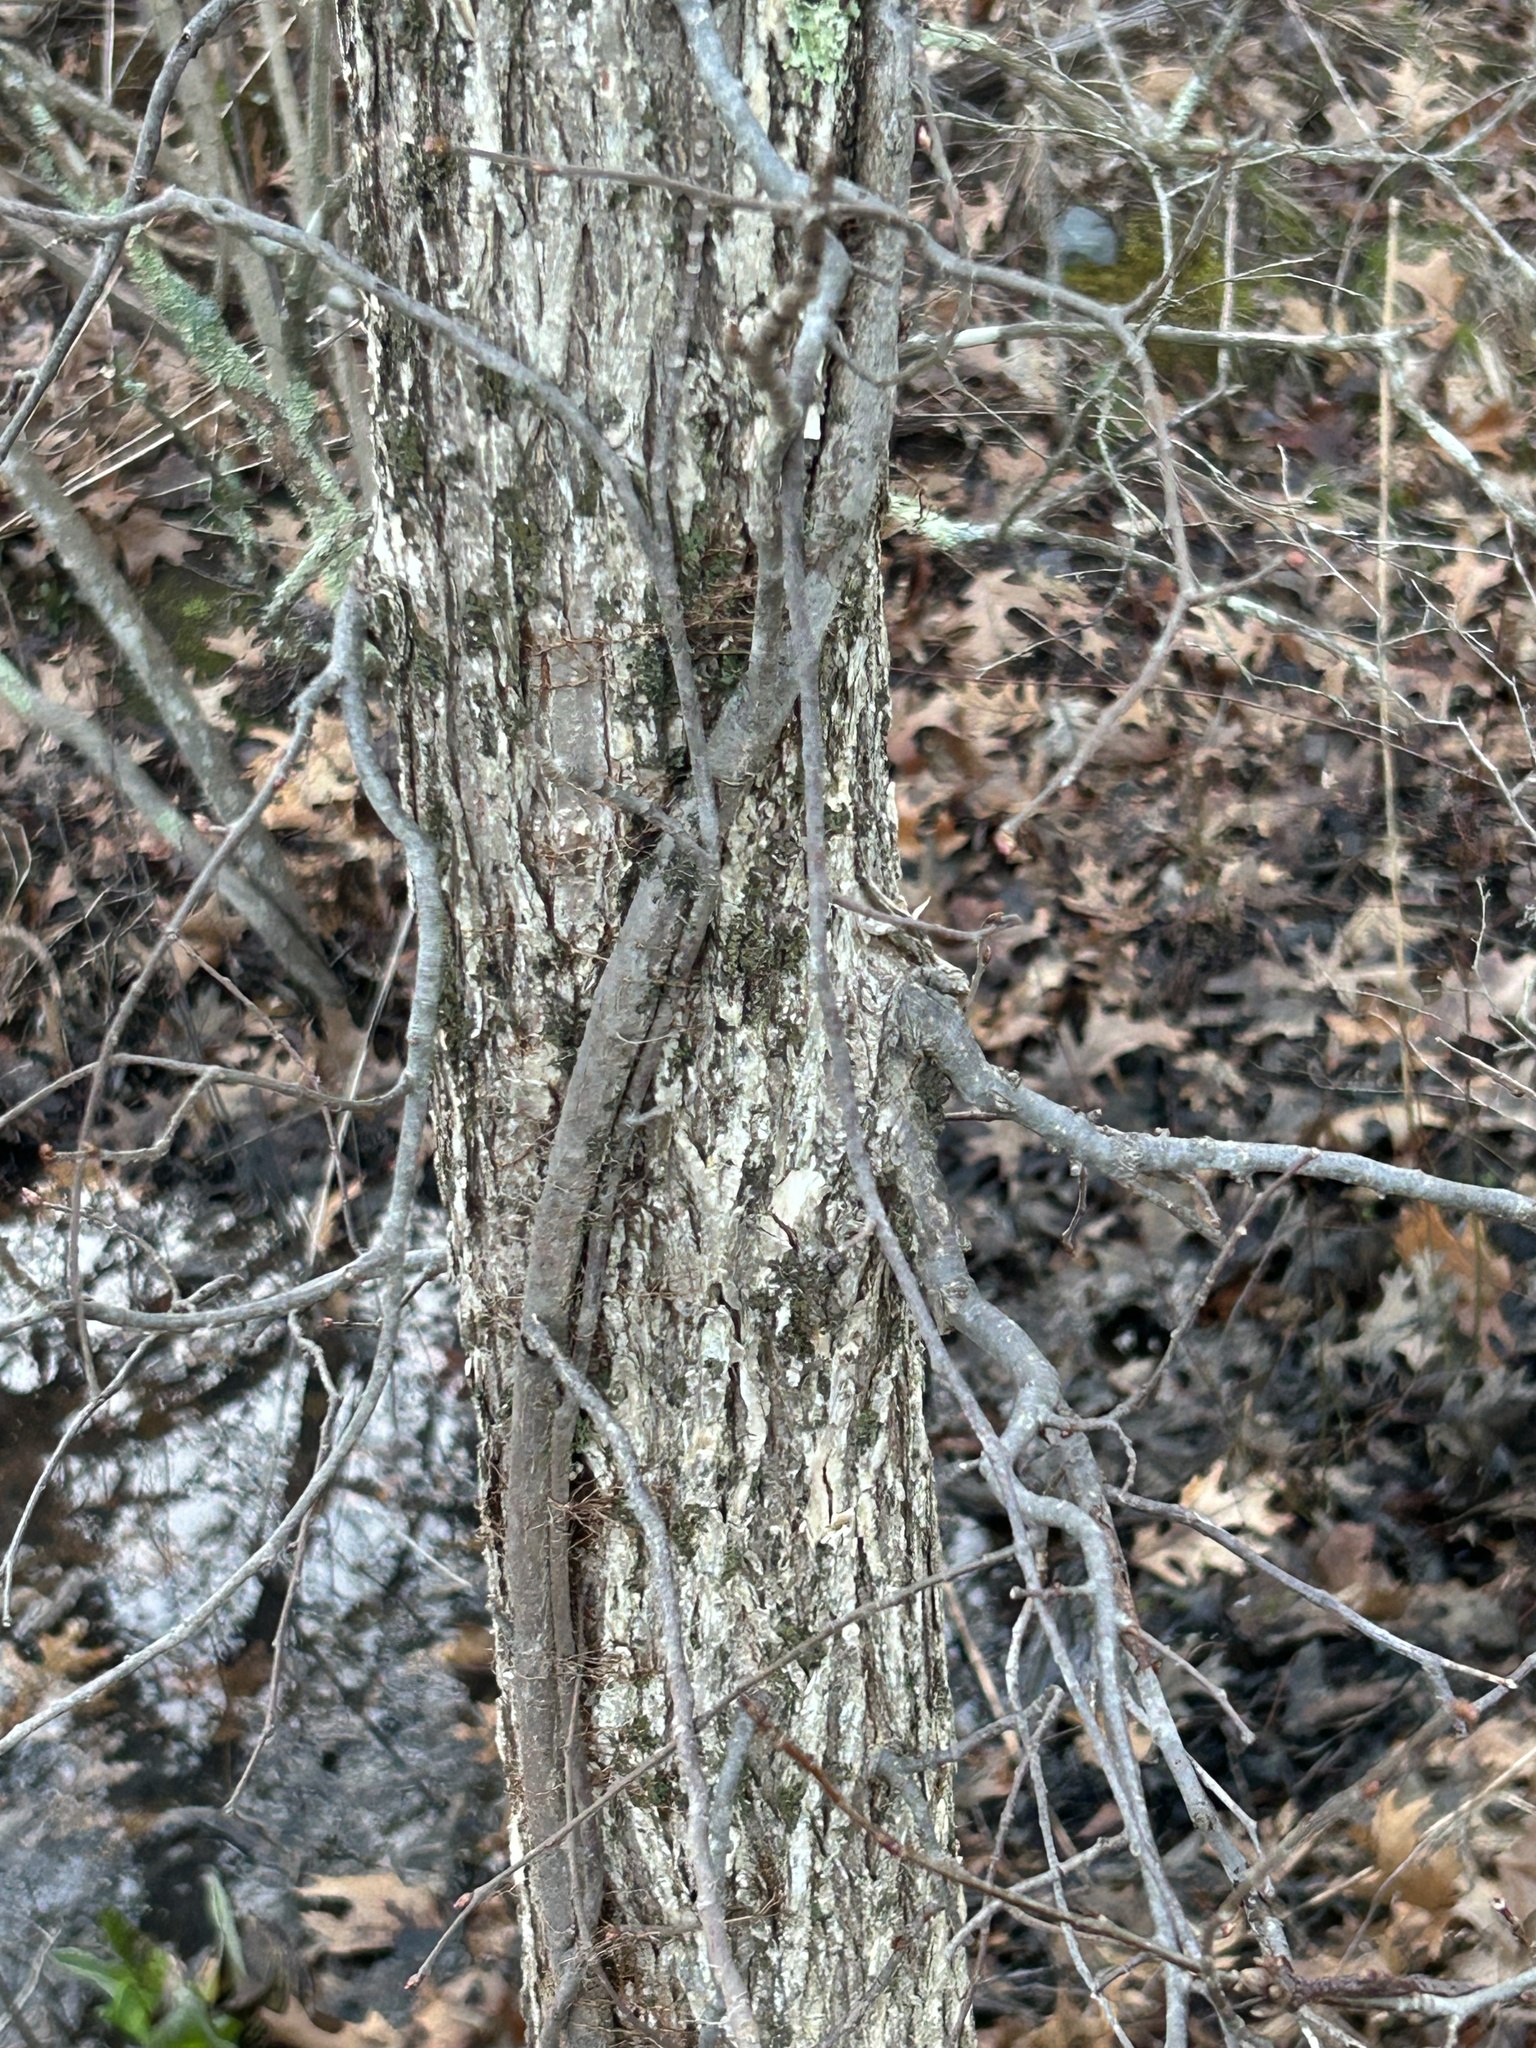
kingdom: Plantae
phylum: Tracheophyta
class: Magnoliopsida
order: Sapindales
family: Anacardiaceae
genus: Toxicodendron
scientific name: Toxicodendron radicans
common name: Poison ivy
